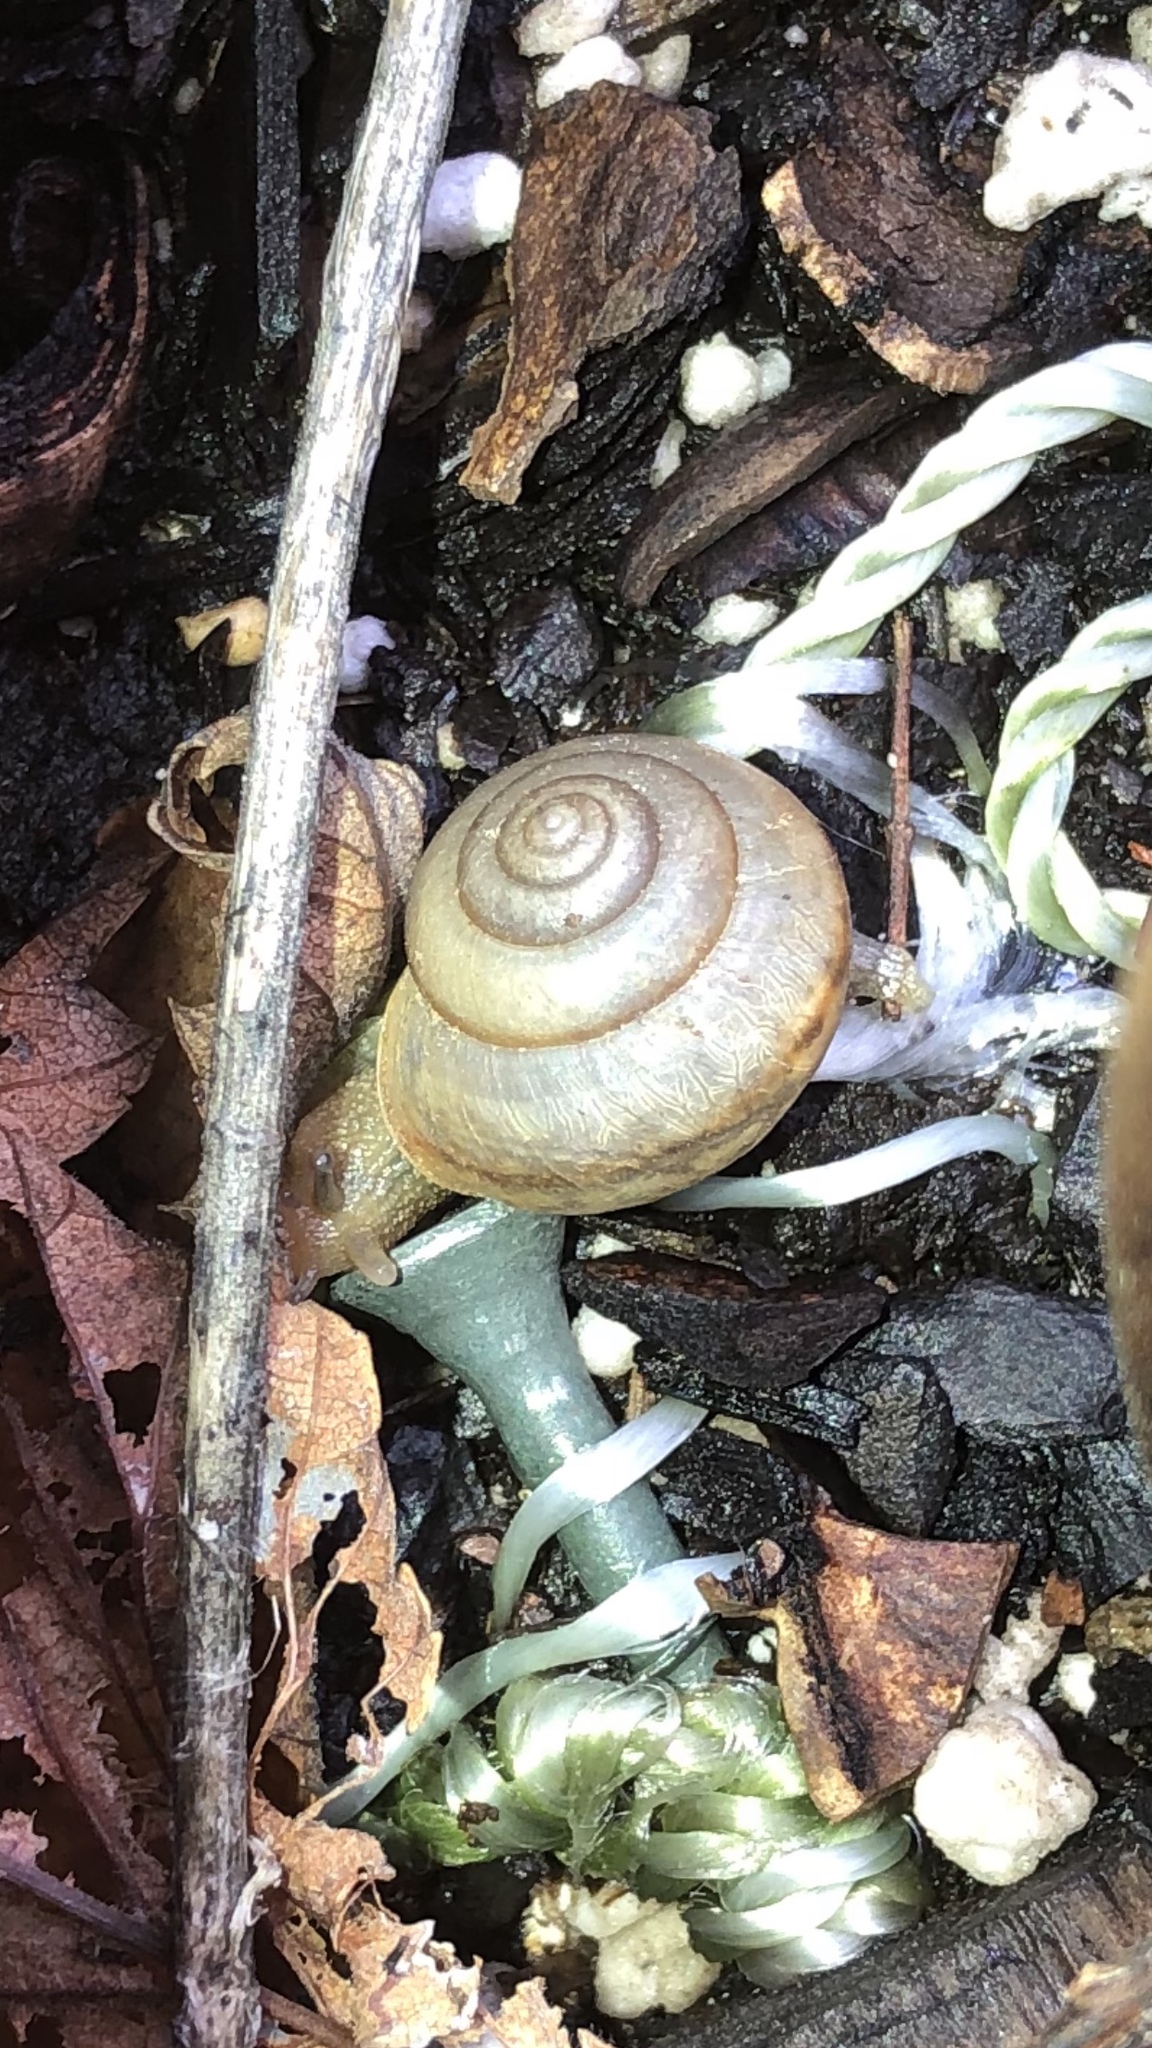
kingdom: Animalia
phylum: Mollusca
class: Gastropoda
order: Stylommatophora
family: Camaenidae
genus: Bradybaena
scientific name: Bradybaena similaris
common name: Asian trampsnail
